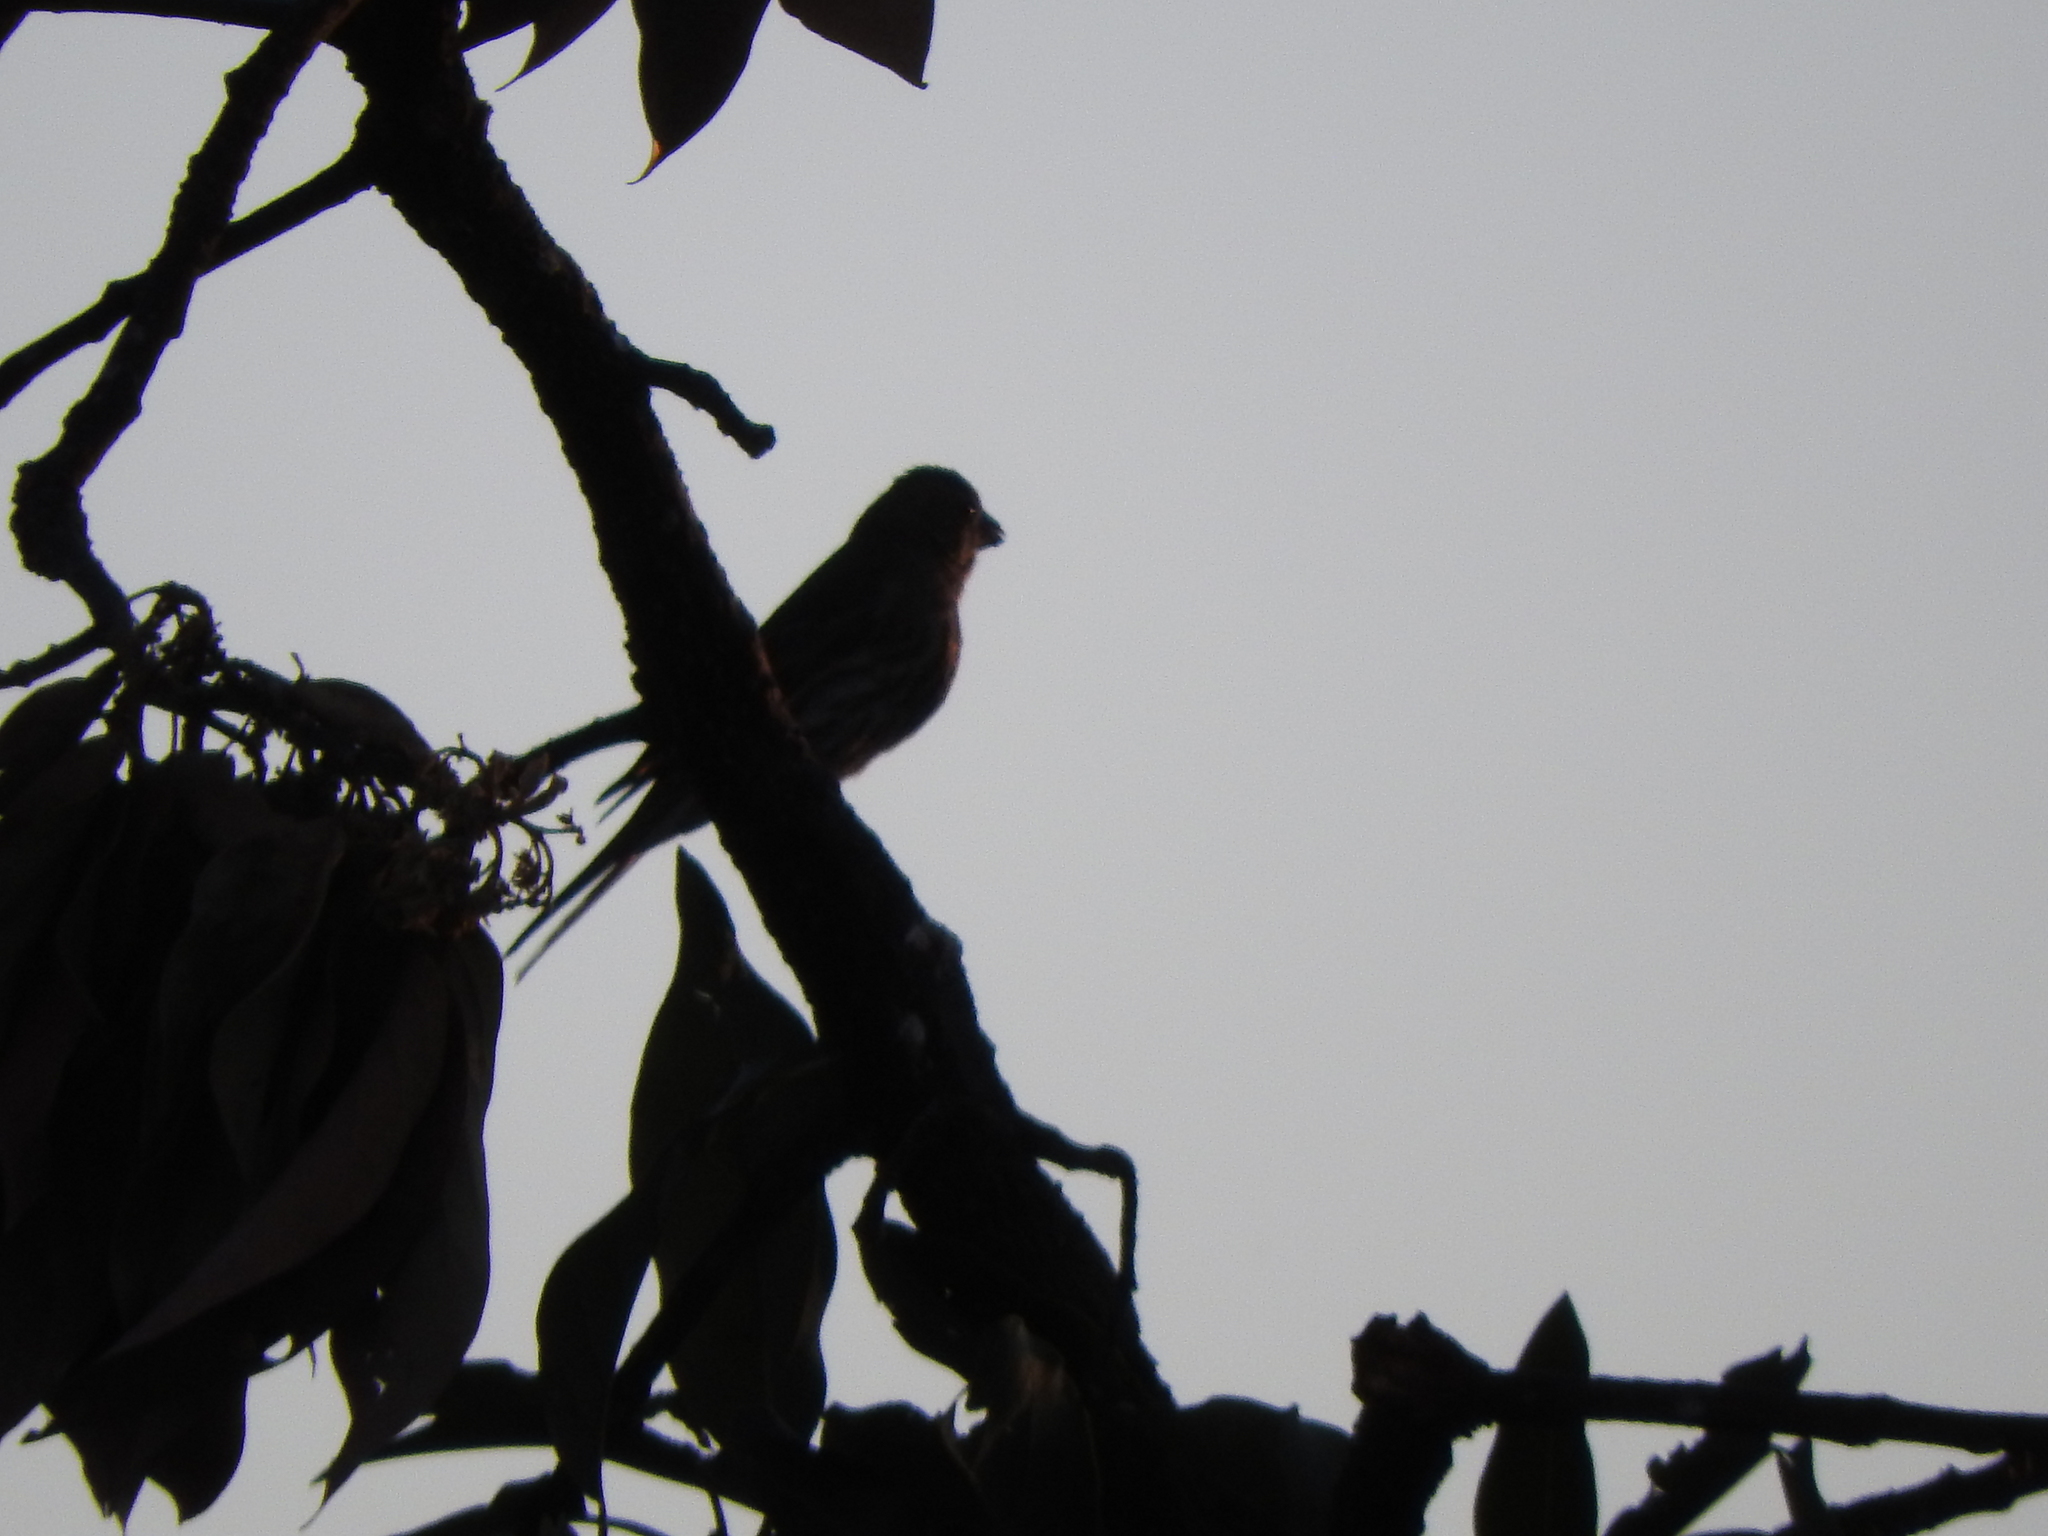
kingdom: Animalia
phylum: Chordata
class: Aves
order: Passeriformes
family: Fringillidae
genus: Haemorhous
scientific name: Haemorhous mexicanus
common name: House finch
